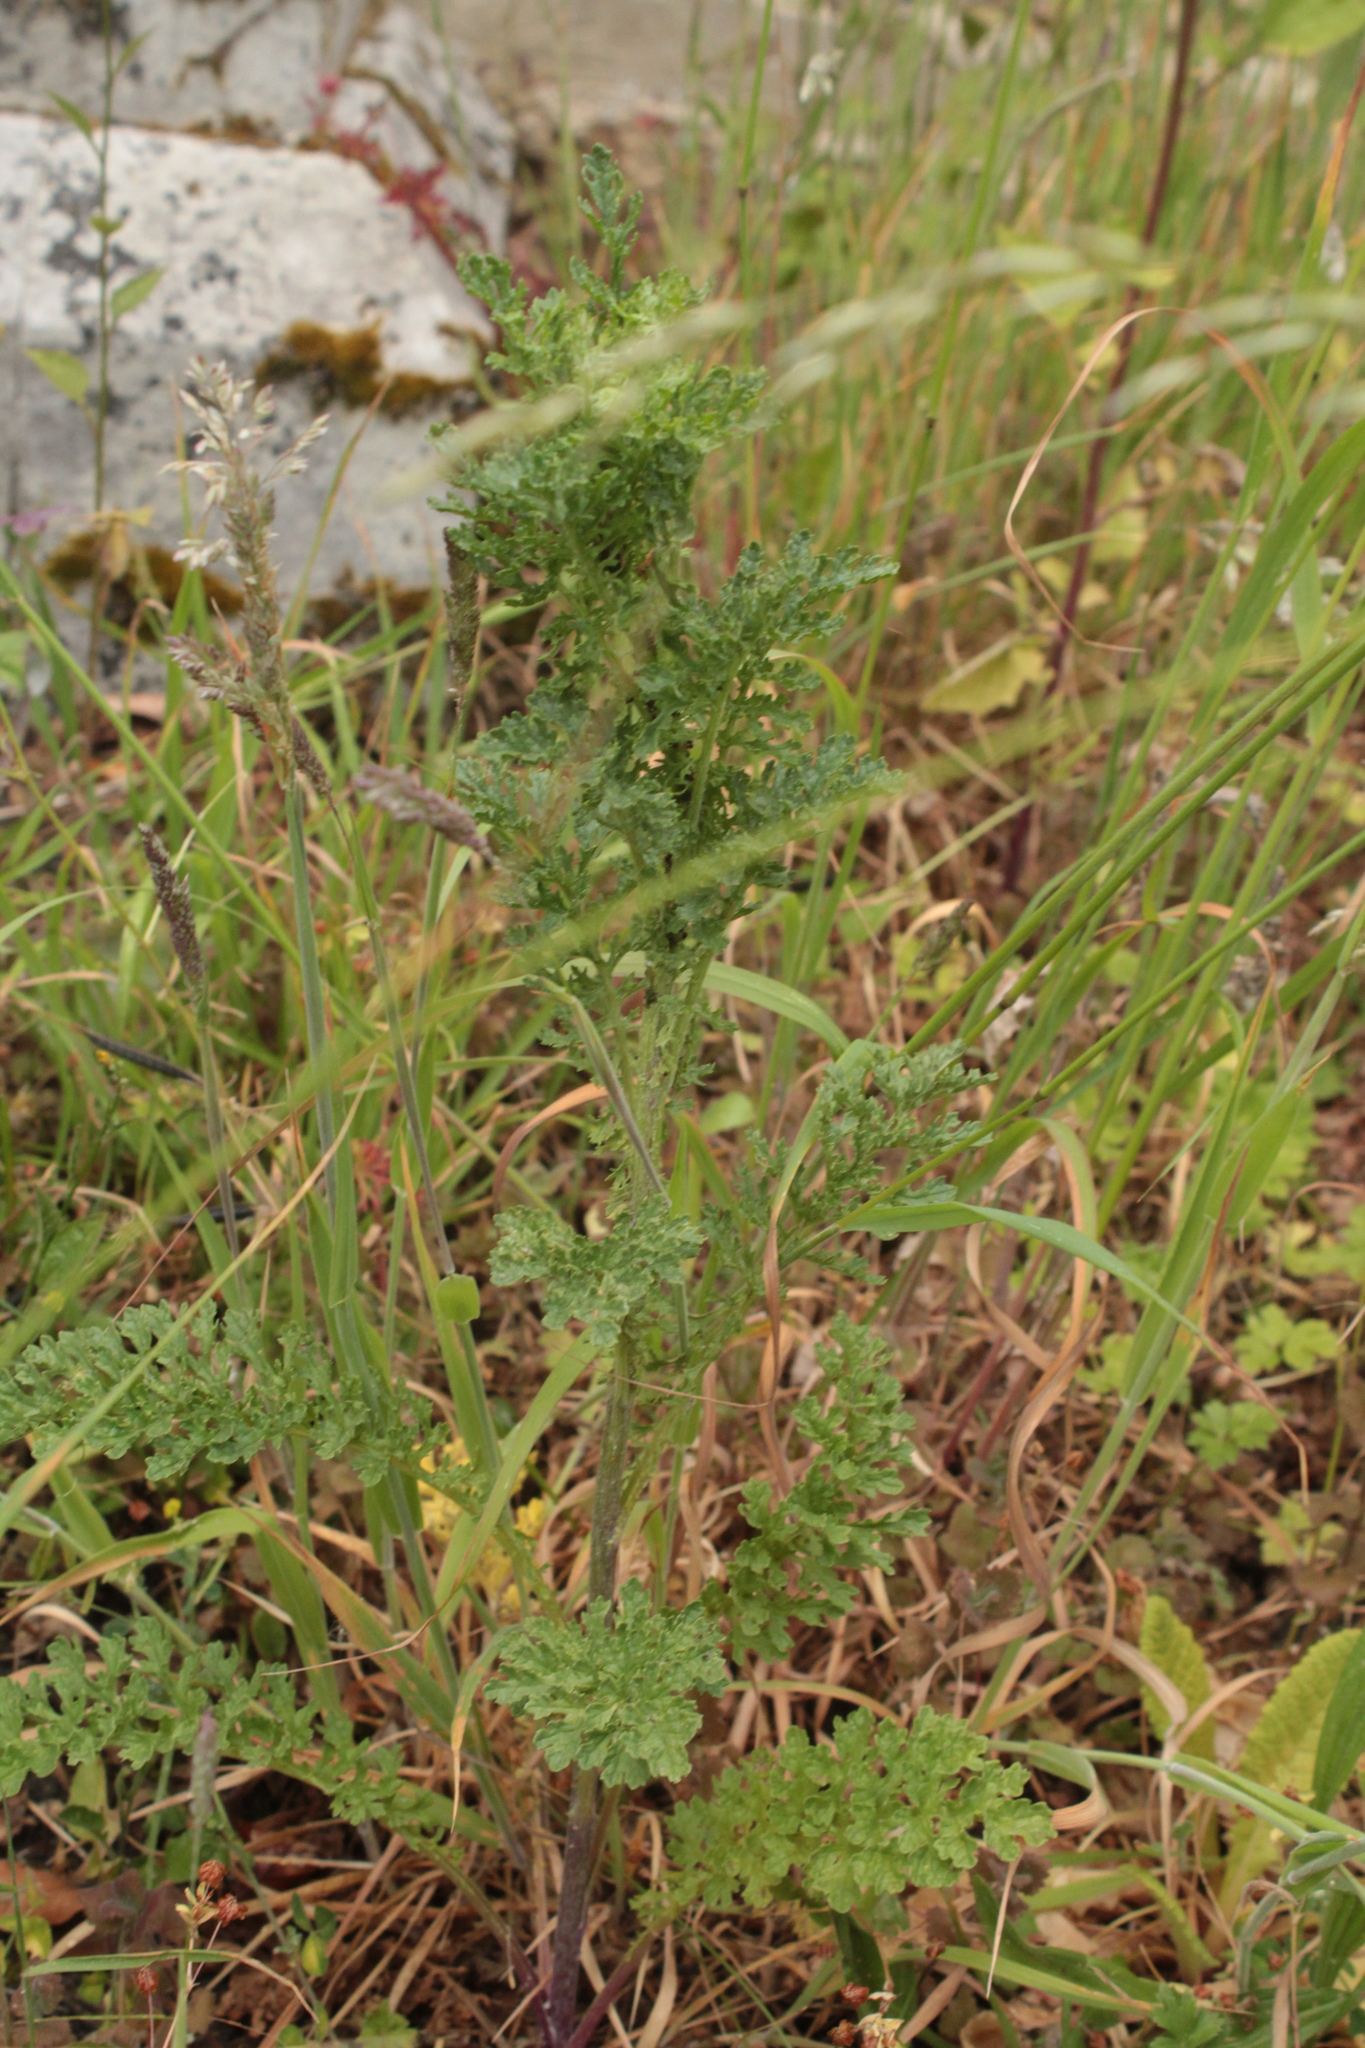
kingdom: Plantae
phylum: Tracheophyta
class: Magnoliopsida
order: Asterales
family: Asteraceae
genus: Jacobaea
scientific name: Jacobaea vulgaris
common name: Stinking willie
